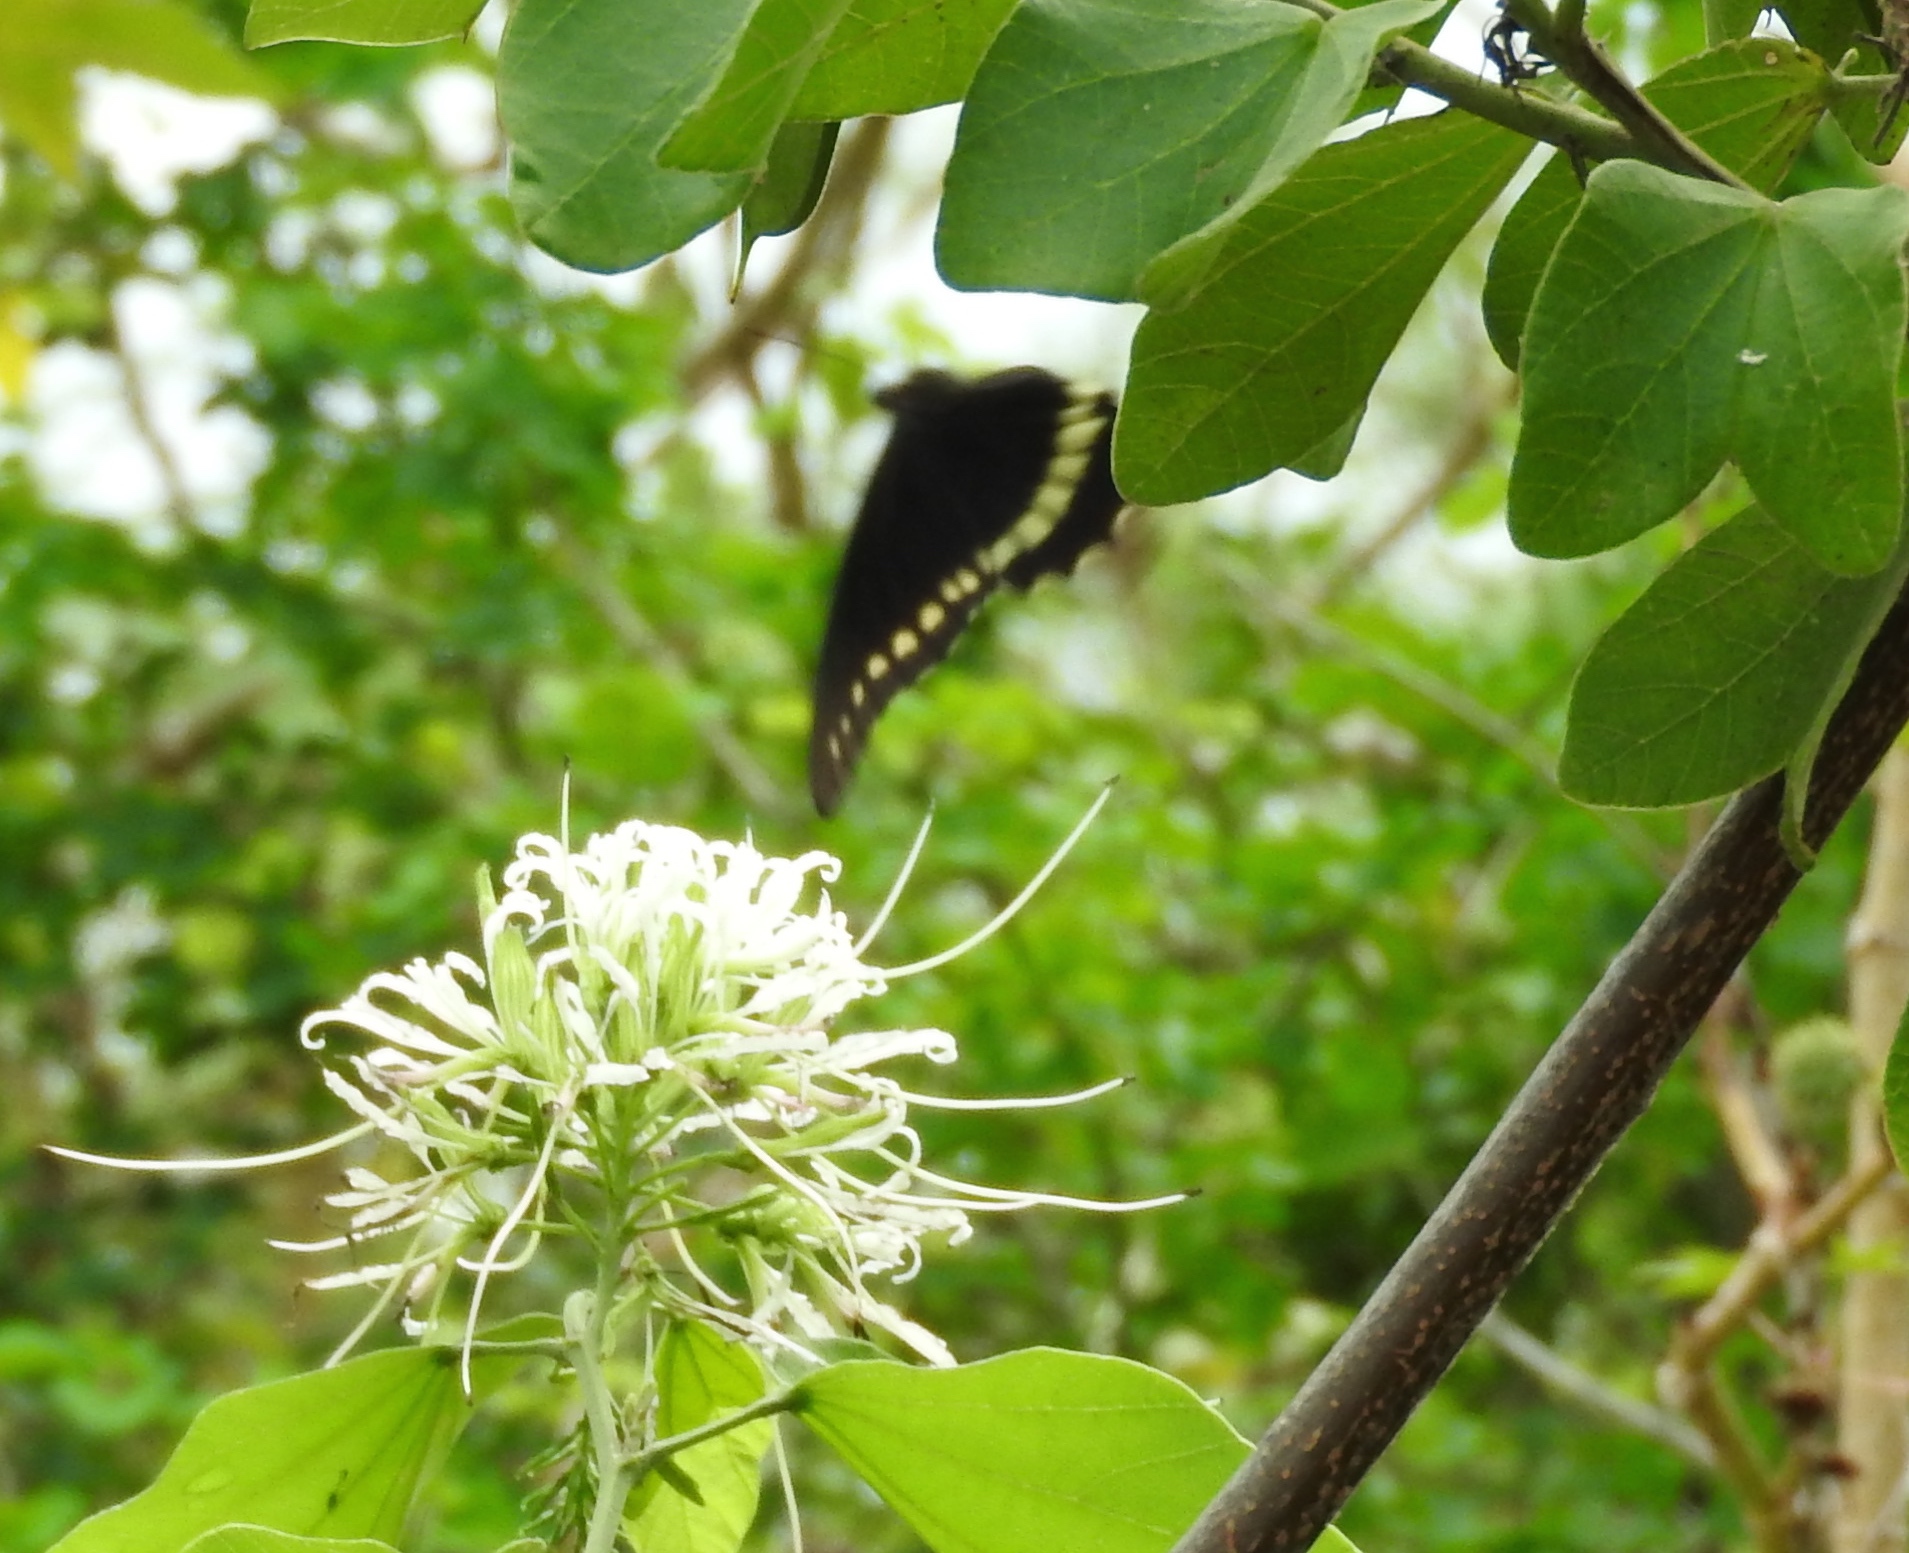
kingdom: Animalia
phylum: Arthropoda
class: Insecta
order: Lepidoptera
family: Papilionidae
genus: Battus
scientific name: Battus polydamas
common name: Polydamas swallowtail
